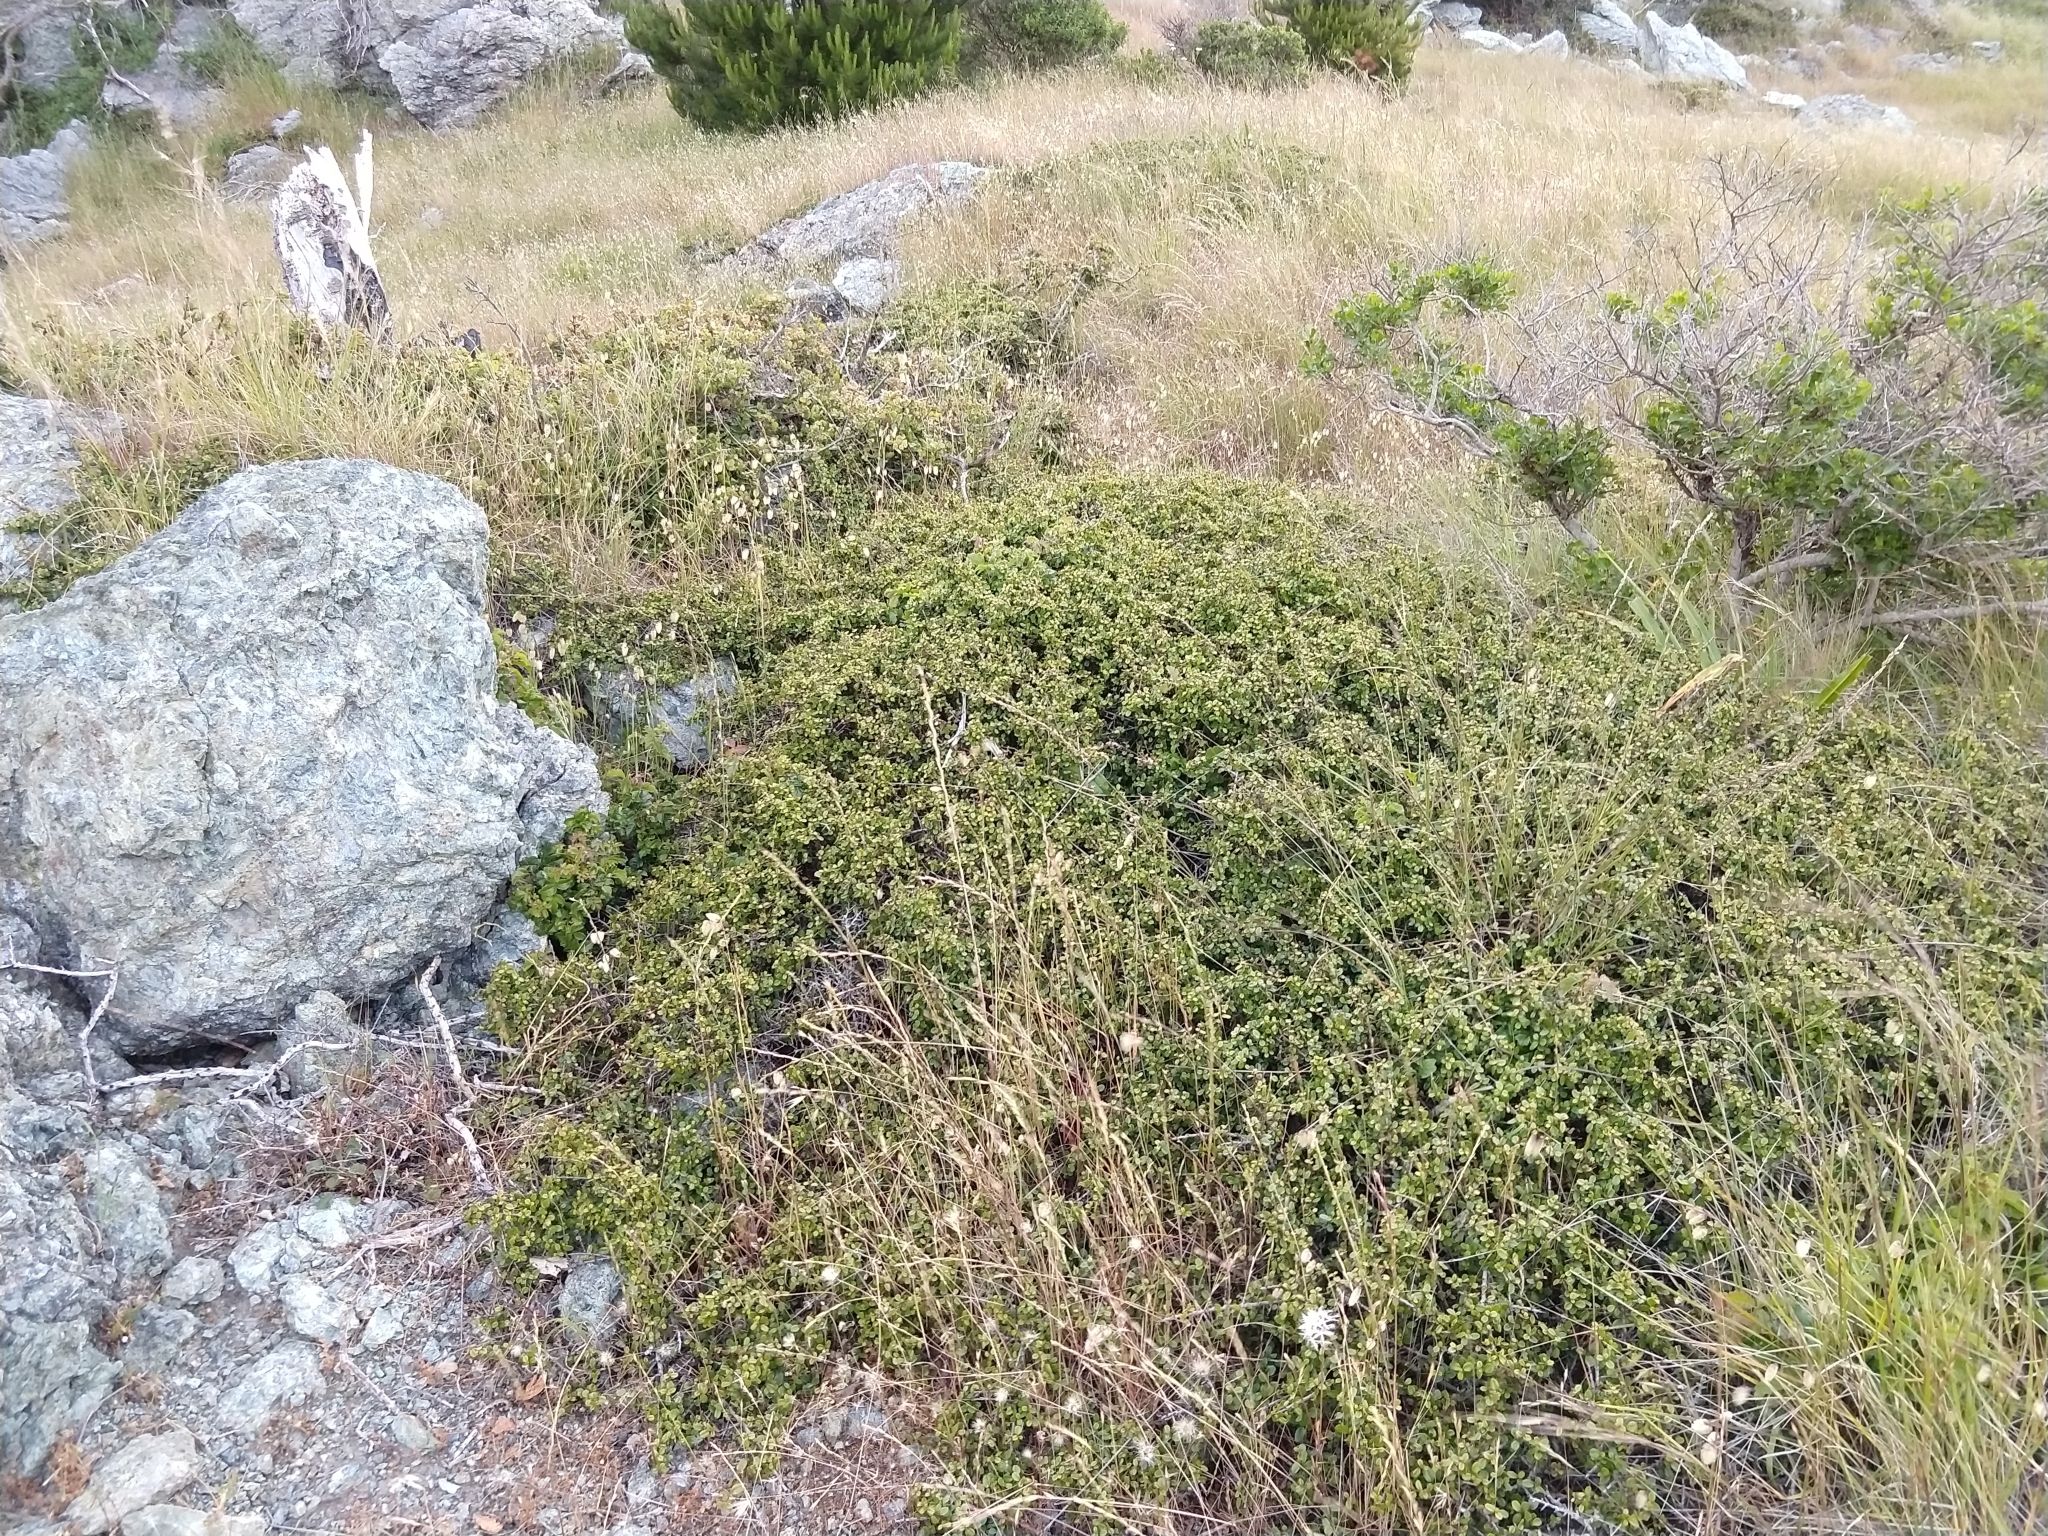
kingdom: Plantae
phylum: Tracheophyta
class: Magnoliopsida
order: Rosales
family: Rhamnaceae
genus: Endotropis
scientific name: Endotropis crocea
